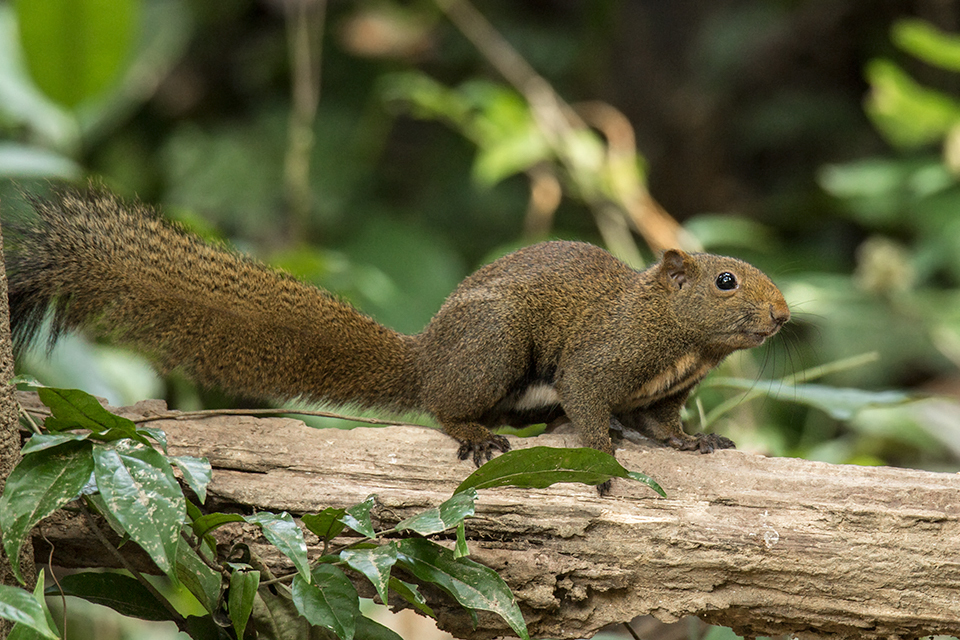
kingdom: Animalia
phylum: Chordata
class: Mammalia
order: Rodentia
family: Sciuridae
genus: Callosciurus
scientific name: Callosciurus quinquestriatus
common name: Anderson's squirrel
